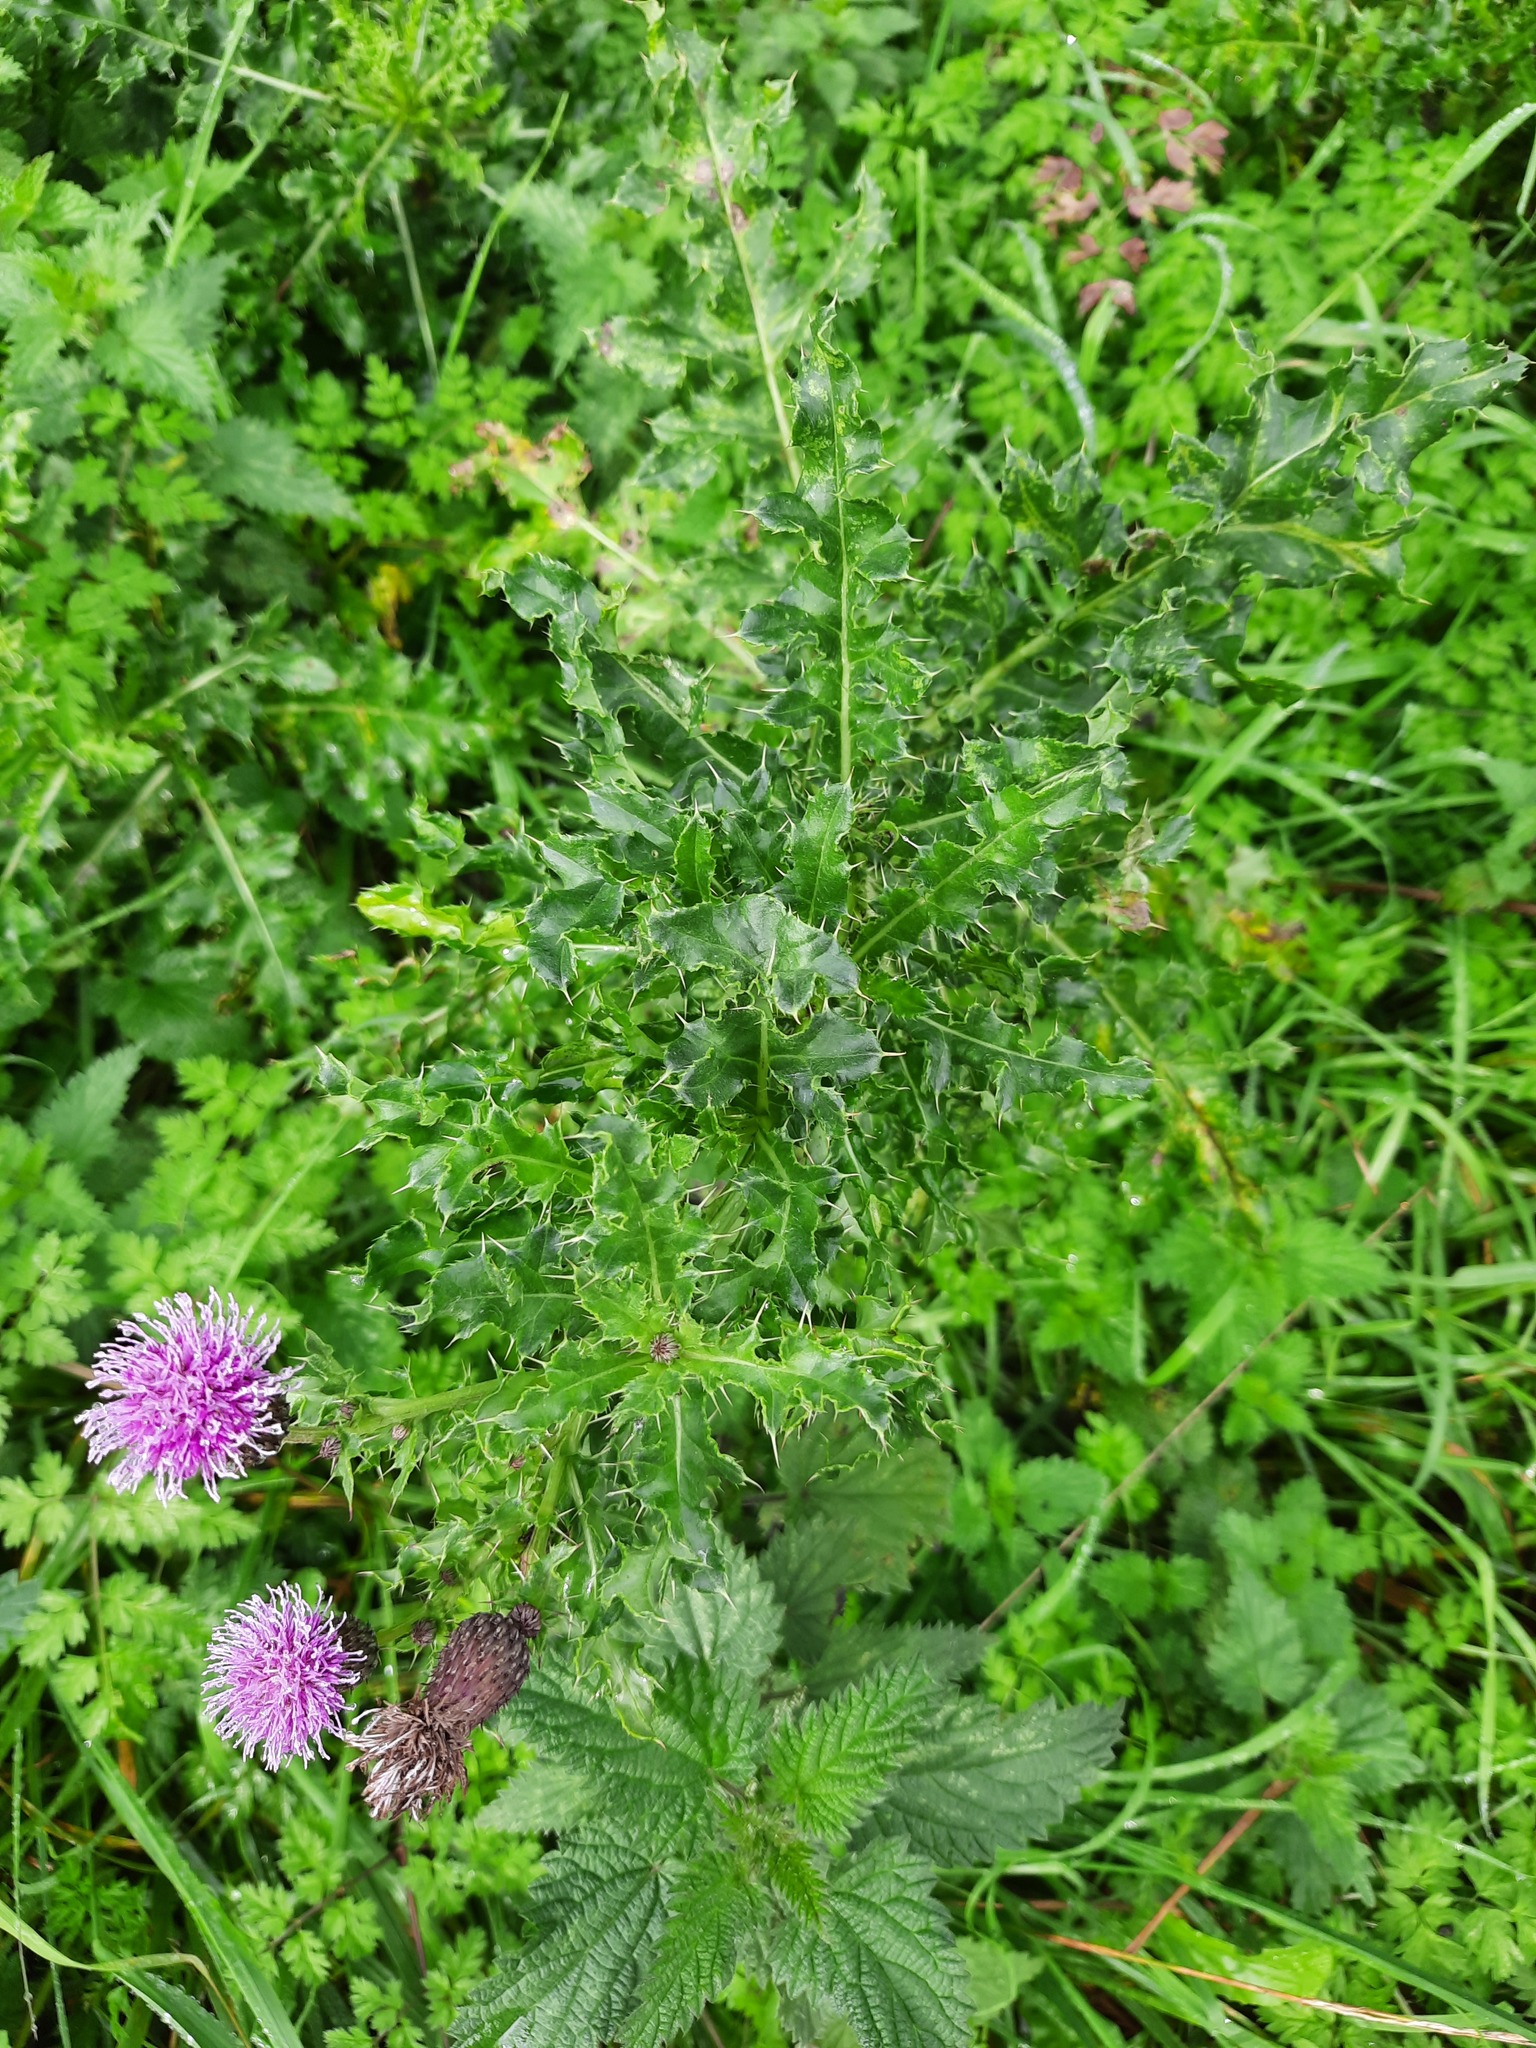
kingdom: Plantae
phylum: Tracheophyta
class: Magnoliopsida
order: Asterales
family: Asteraceae
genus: Cirsium
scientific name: Cirsium arvense
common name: Creeping thistle
